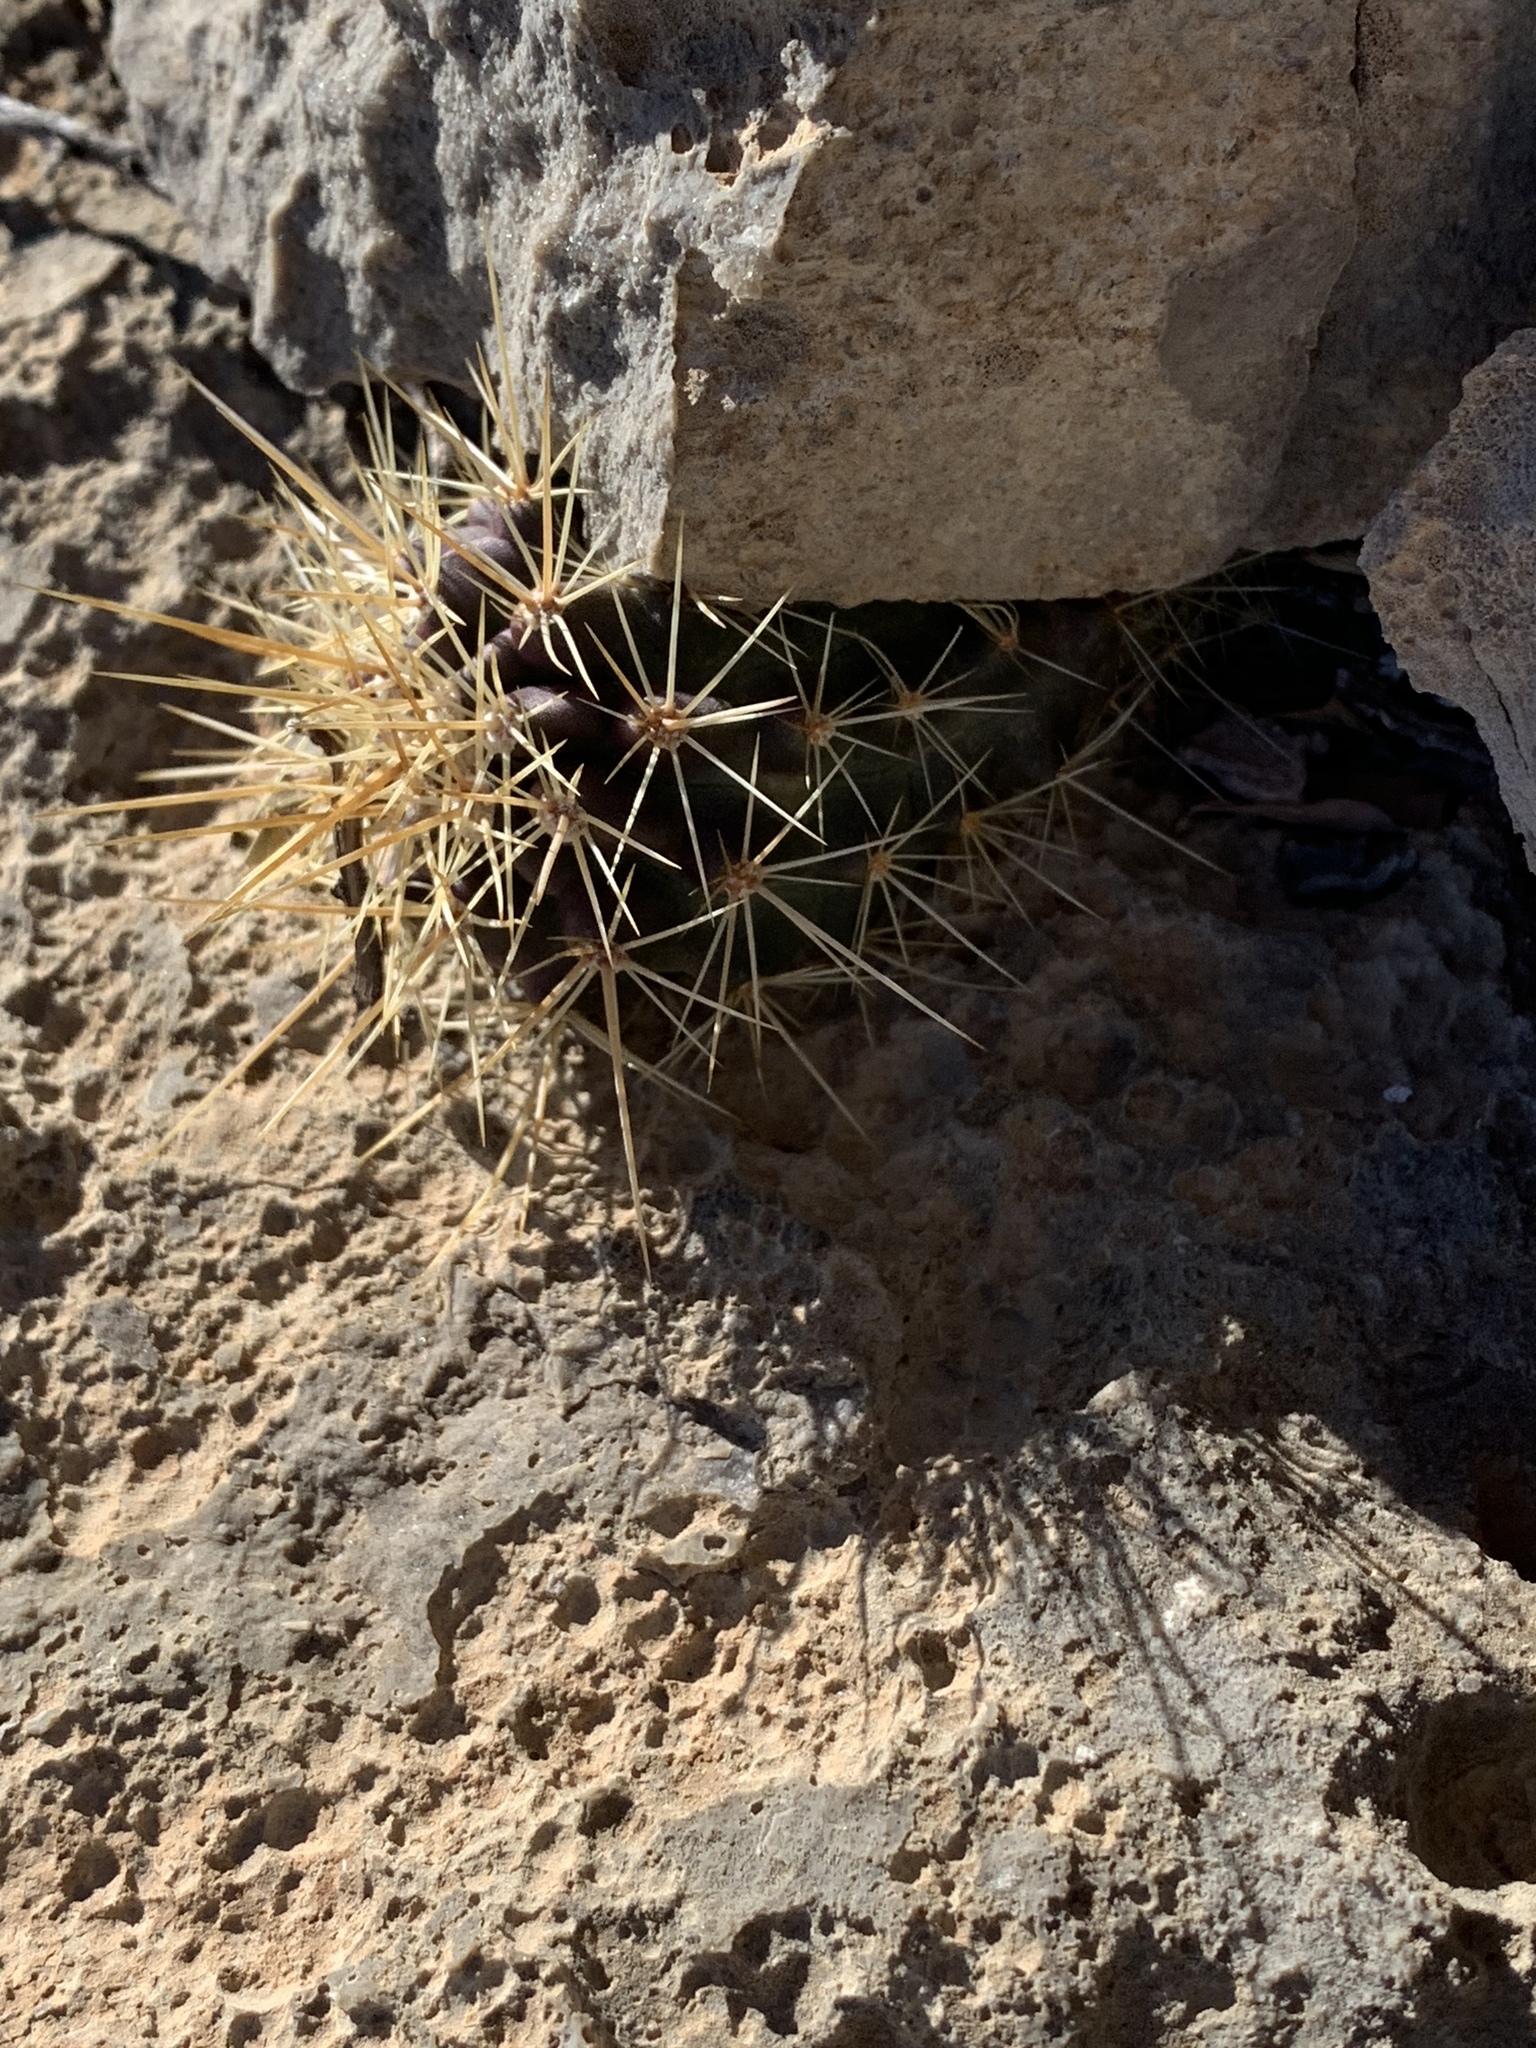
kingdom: Plantae
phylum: Tracheophyta
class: Magnoliopsida
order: Caryophyllales
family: Cactaceae
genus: Echinocereus
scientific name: Echinocereus coccineus
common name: Scarlet hedgehog cactus
